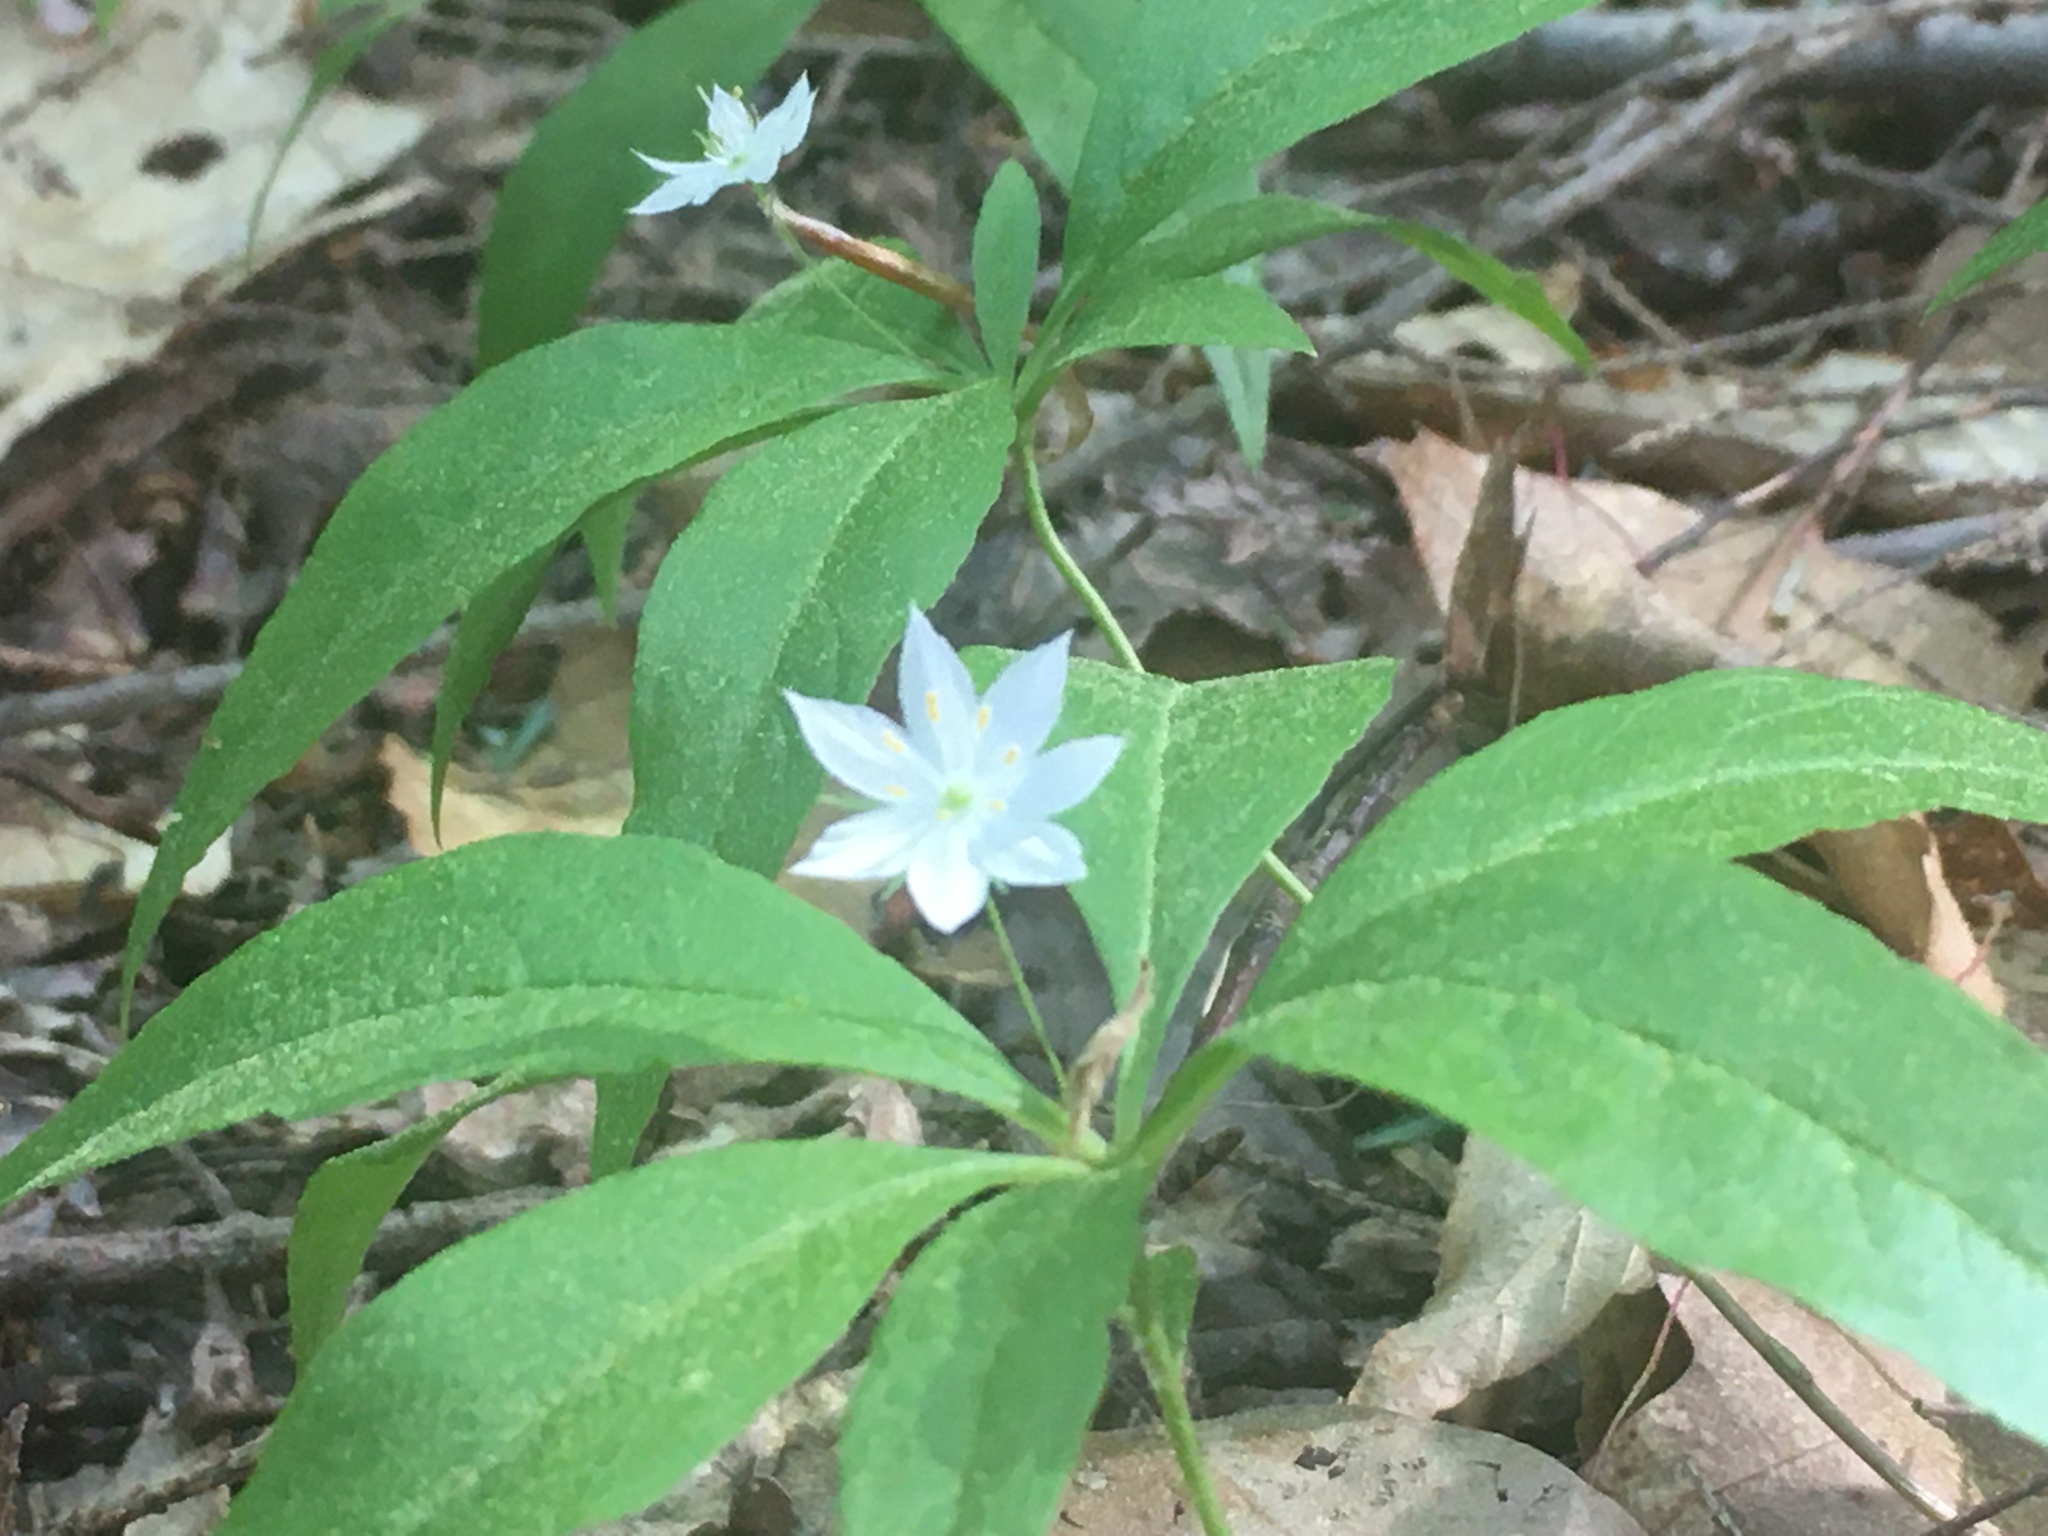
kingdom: Plantae
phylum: Tracheophyta
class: Magnoliopsida
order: Ericales
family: Primulaceae
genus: Lysimachia
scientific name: Lysimachia borealis
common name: American starflower
